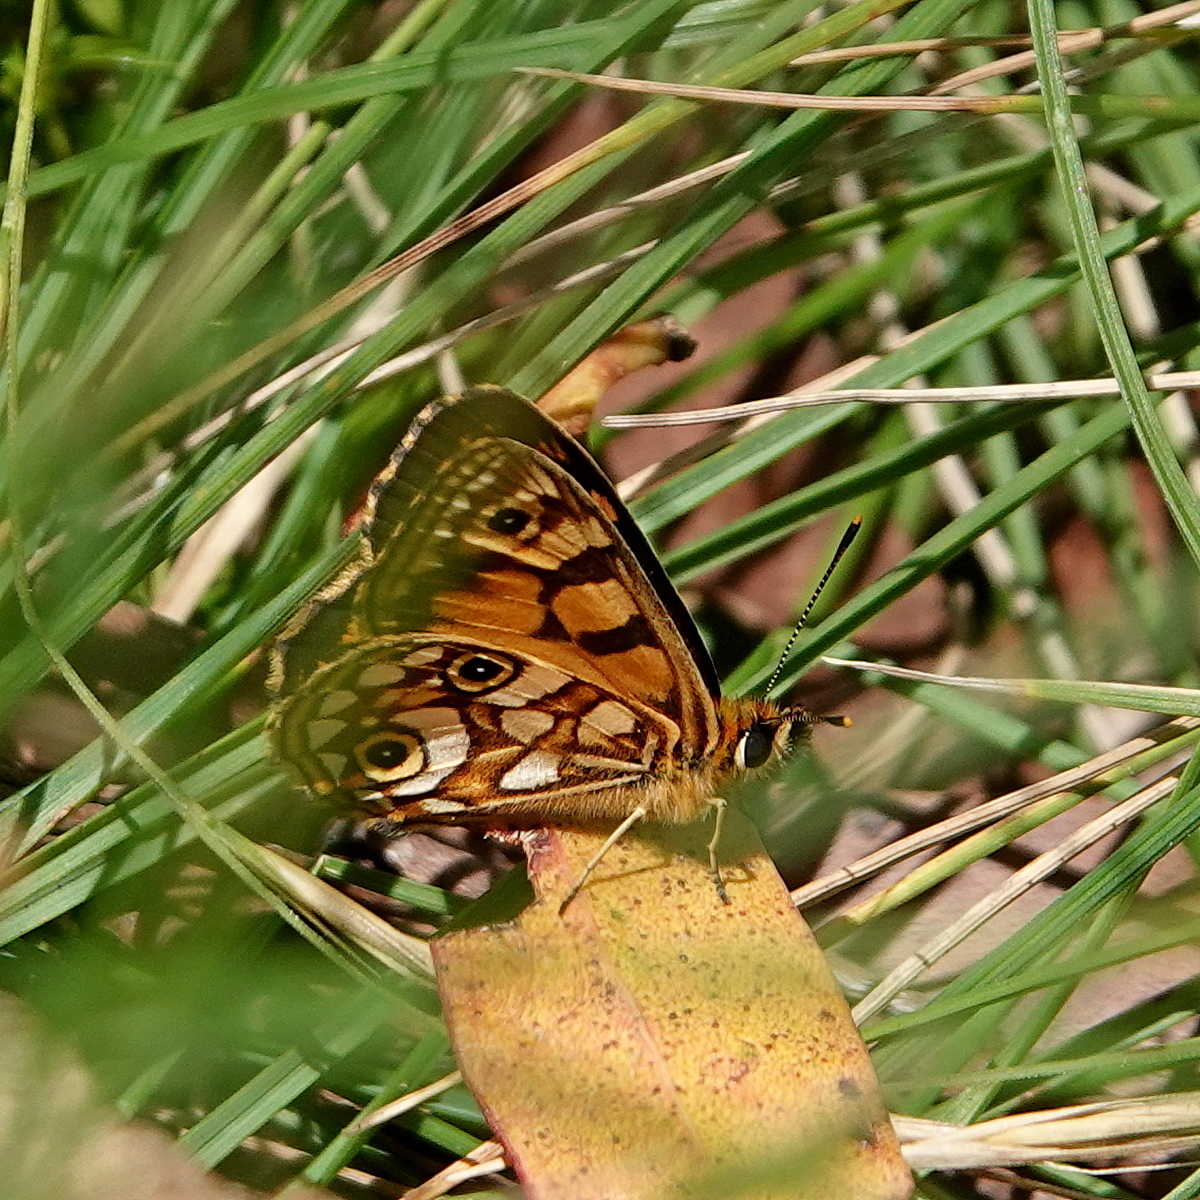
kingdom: Animalia
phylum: Arthropoda
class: Insecta
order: Lepidoptera
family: Nymphalidae
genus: Oreixenica
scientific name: Oreixenica latialis
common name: Alpine silver xenica
